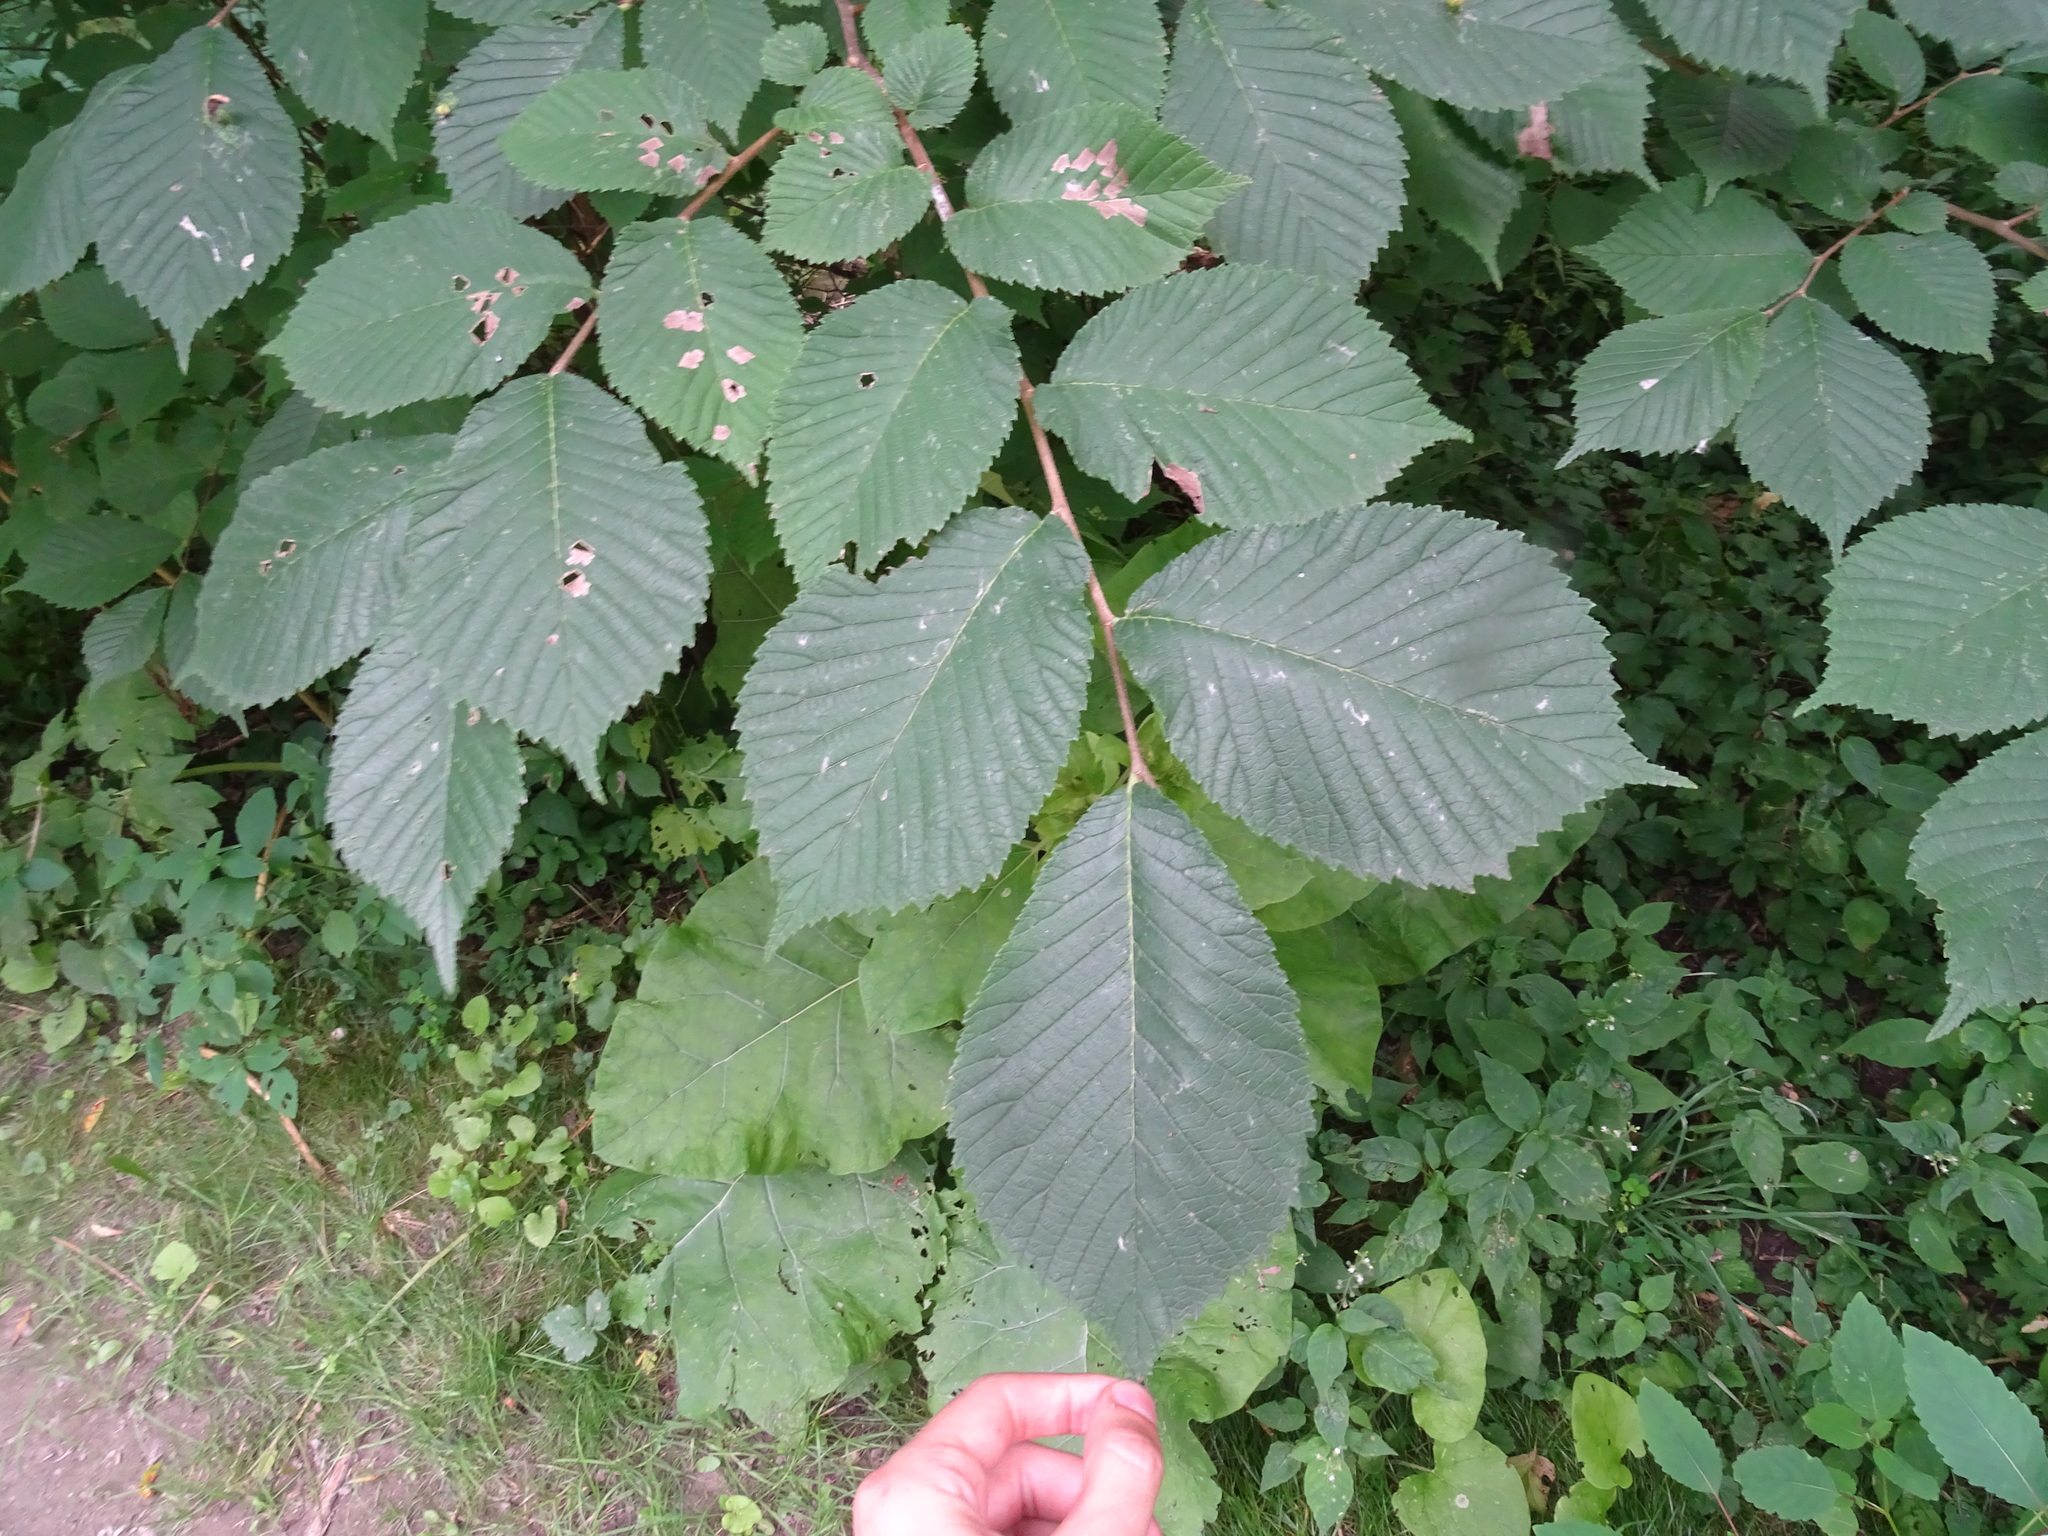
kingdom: Plantae
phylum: Tracheophyta
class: Magnoliopsida
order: Rosales
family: Ulmaceae
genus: Ulmus
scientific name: Ulmus rubra
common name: Slippery elm
